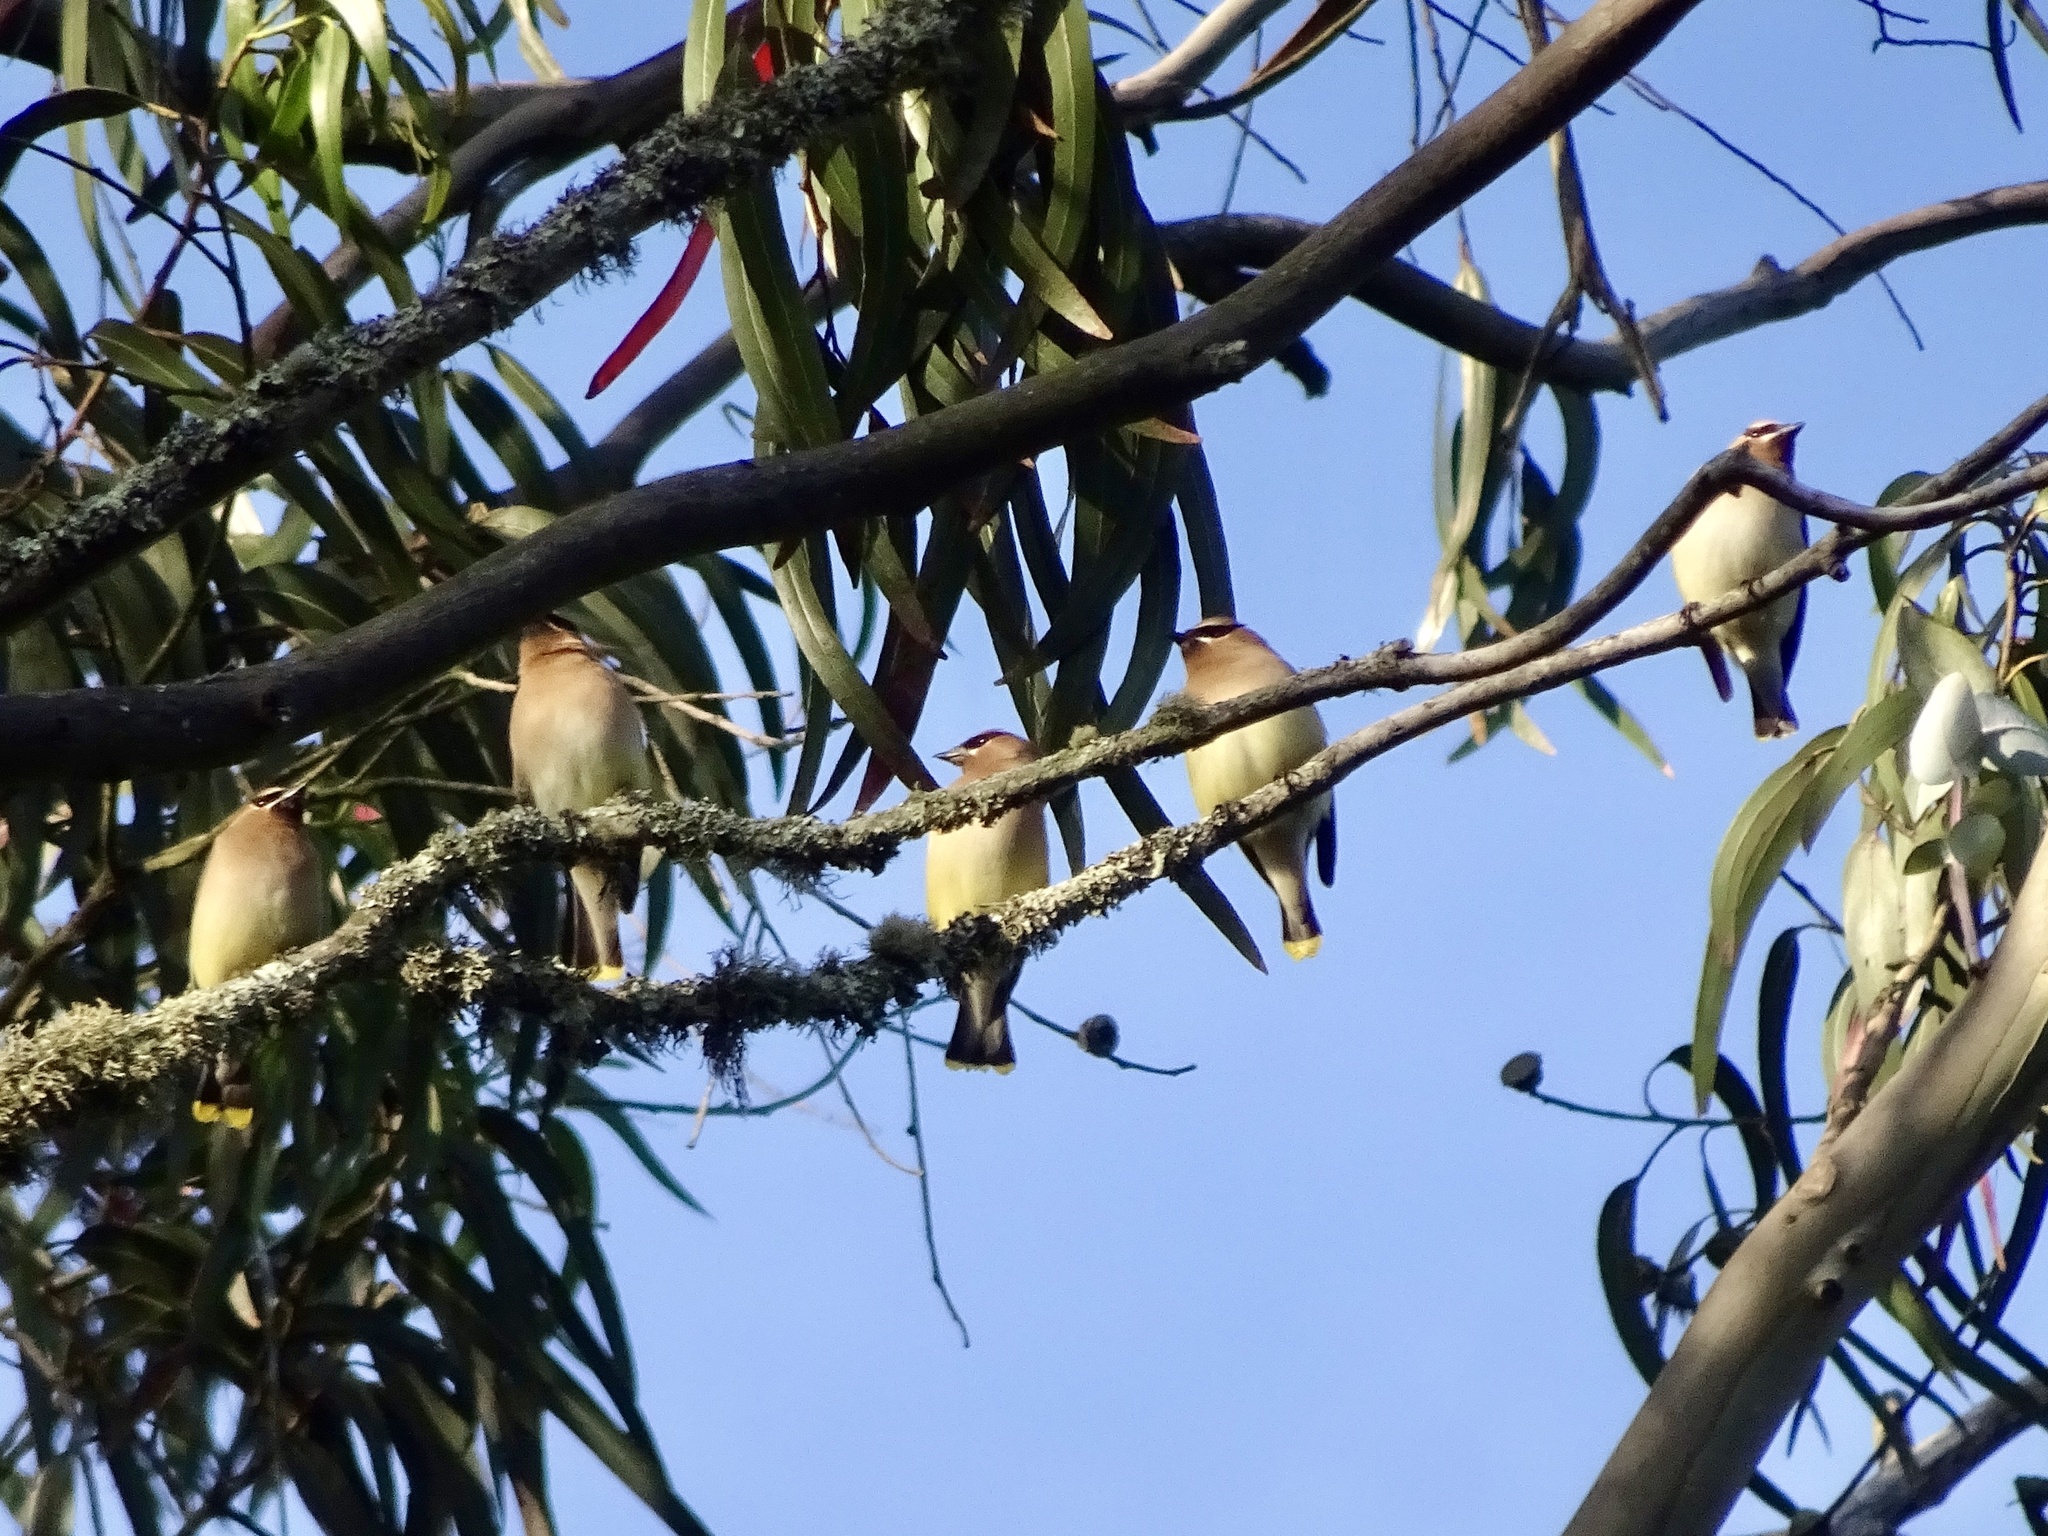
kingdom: Animalia
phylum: Chordata
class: Aves
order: Passeriformes
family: Bombycillidae
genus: Bombycilla
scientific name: Bombycilla cedrorum
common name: Cedar waxwing
